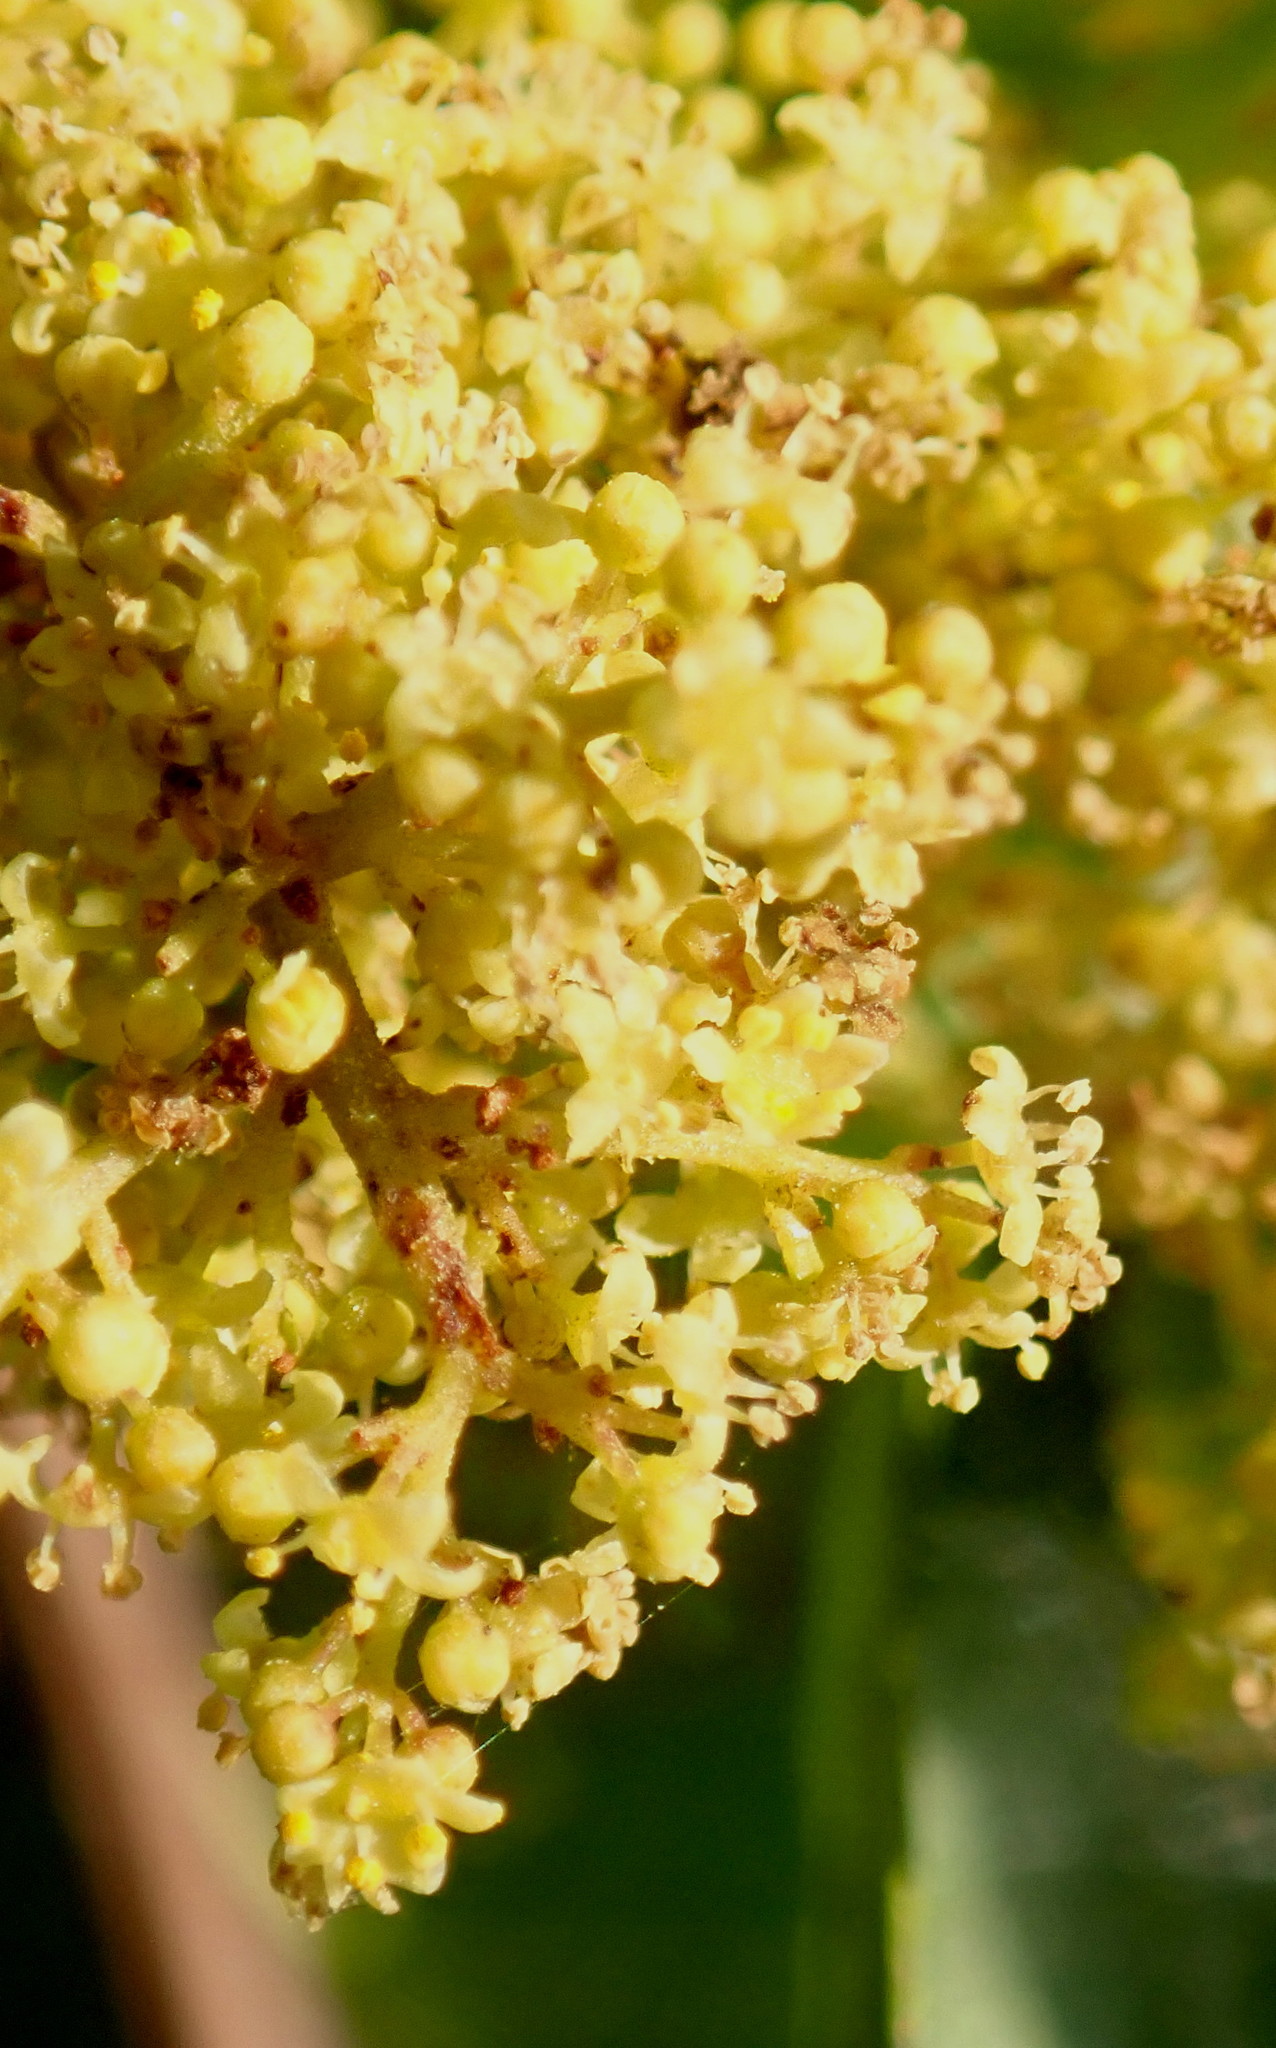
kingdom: Plantae
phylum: Tracheophyta
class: Magnoliopsida
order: Sapindales
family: Anacardiaceae
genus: Searsia
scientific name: Searsia lucida
